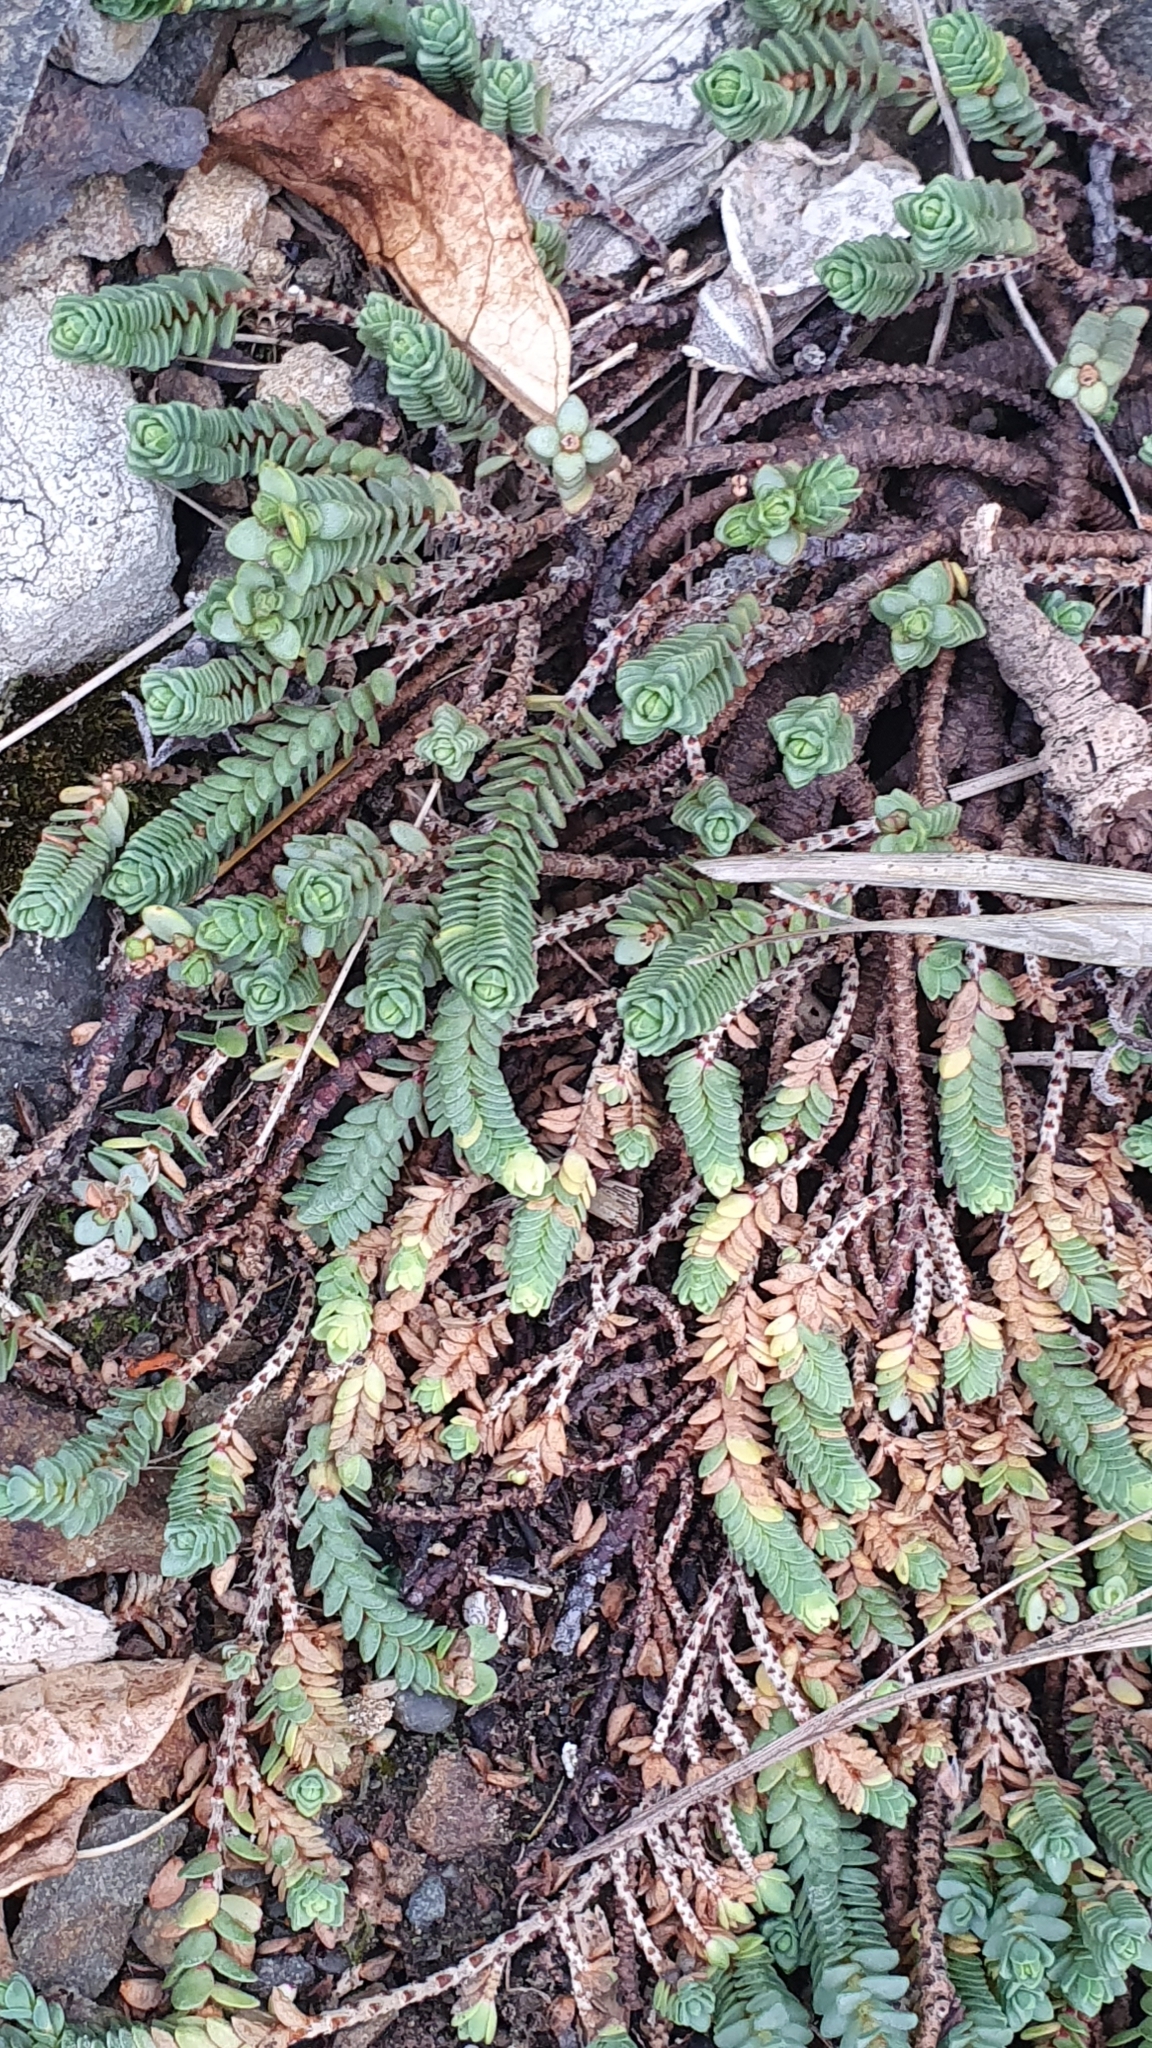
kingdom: Plantae
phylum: Tracheophyta
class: Magnoliopsida
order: Malvales
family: Thymelaeaceae
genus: Pimelea
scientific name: Pimelea carnosa
